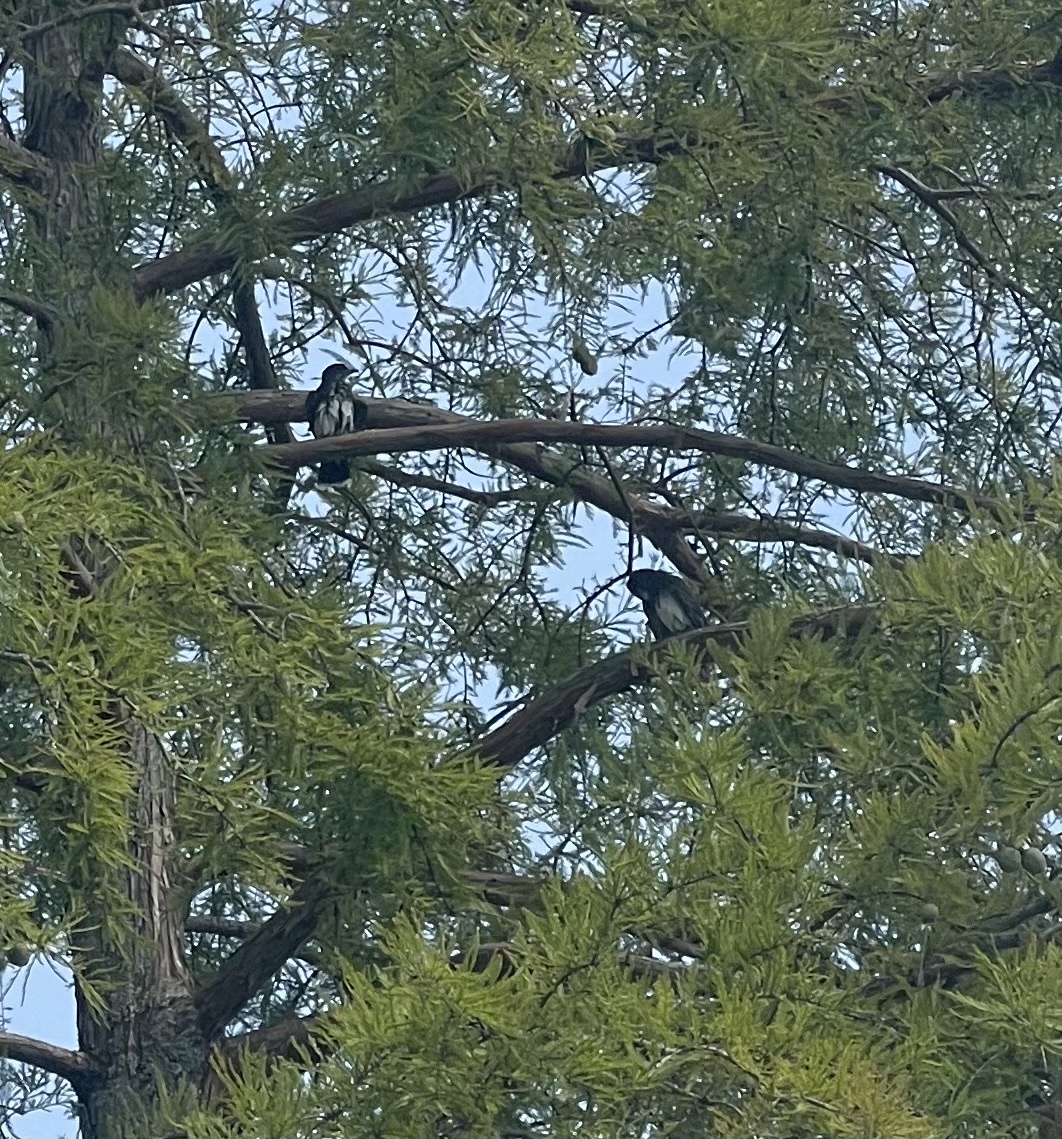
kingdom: Animalia
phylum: Chordata
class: Aves
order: Passeriformes
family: Tyrannidae
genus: Tyrannus
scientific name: Tyrannus tyrannus
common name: Eastern kingbird
